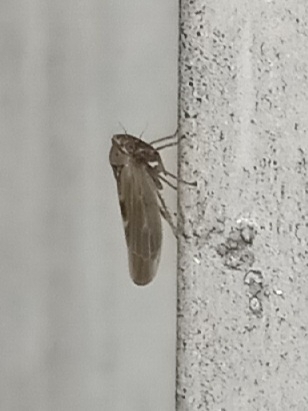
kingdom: Animalia
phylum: Arthropoda
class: Insecta
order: Hemiptera
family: Cicadellidae
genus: Agalliopsis
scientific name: Agalliopsis ancistra
